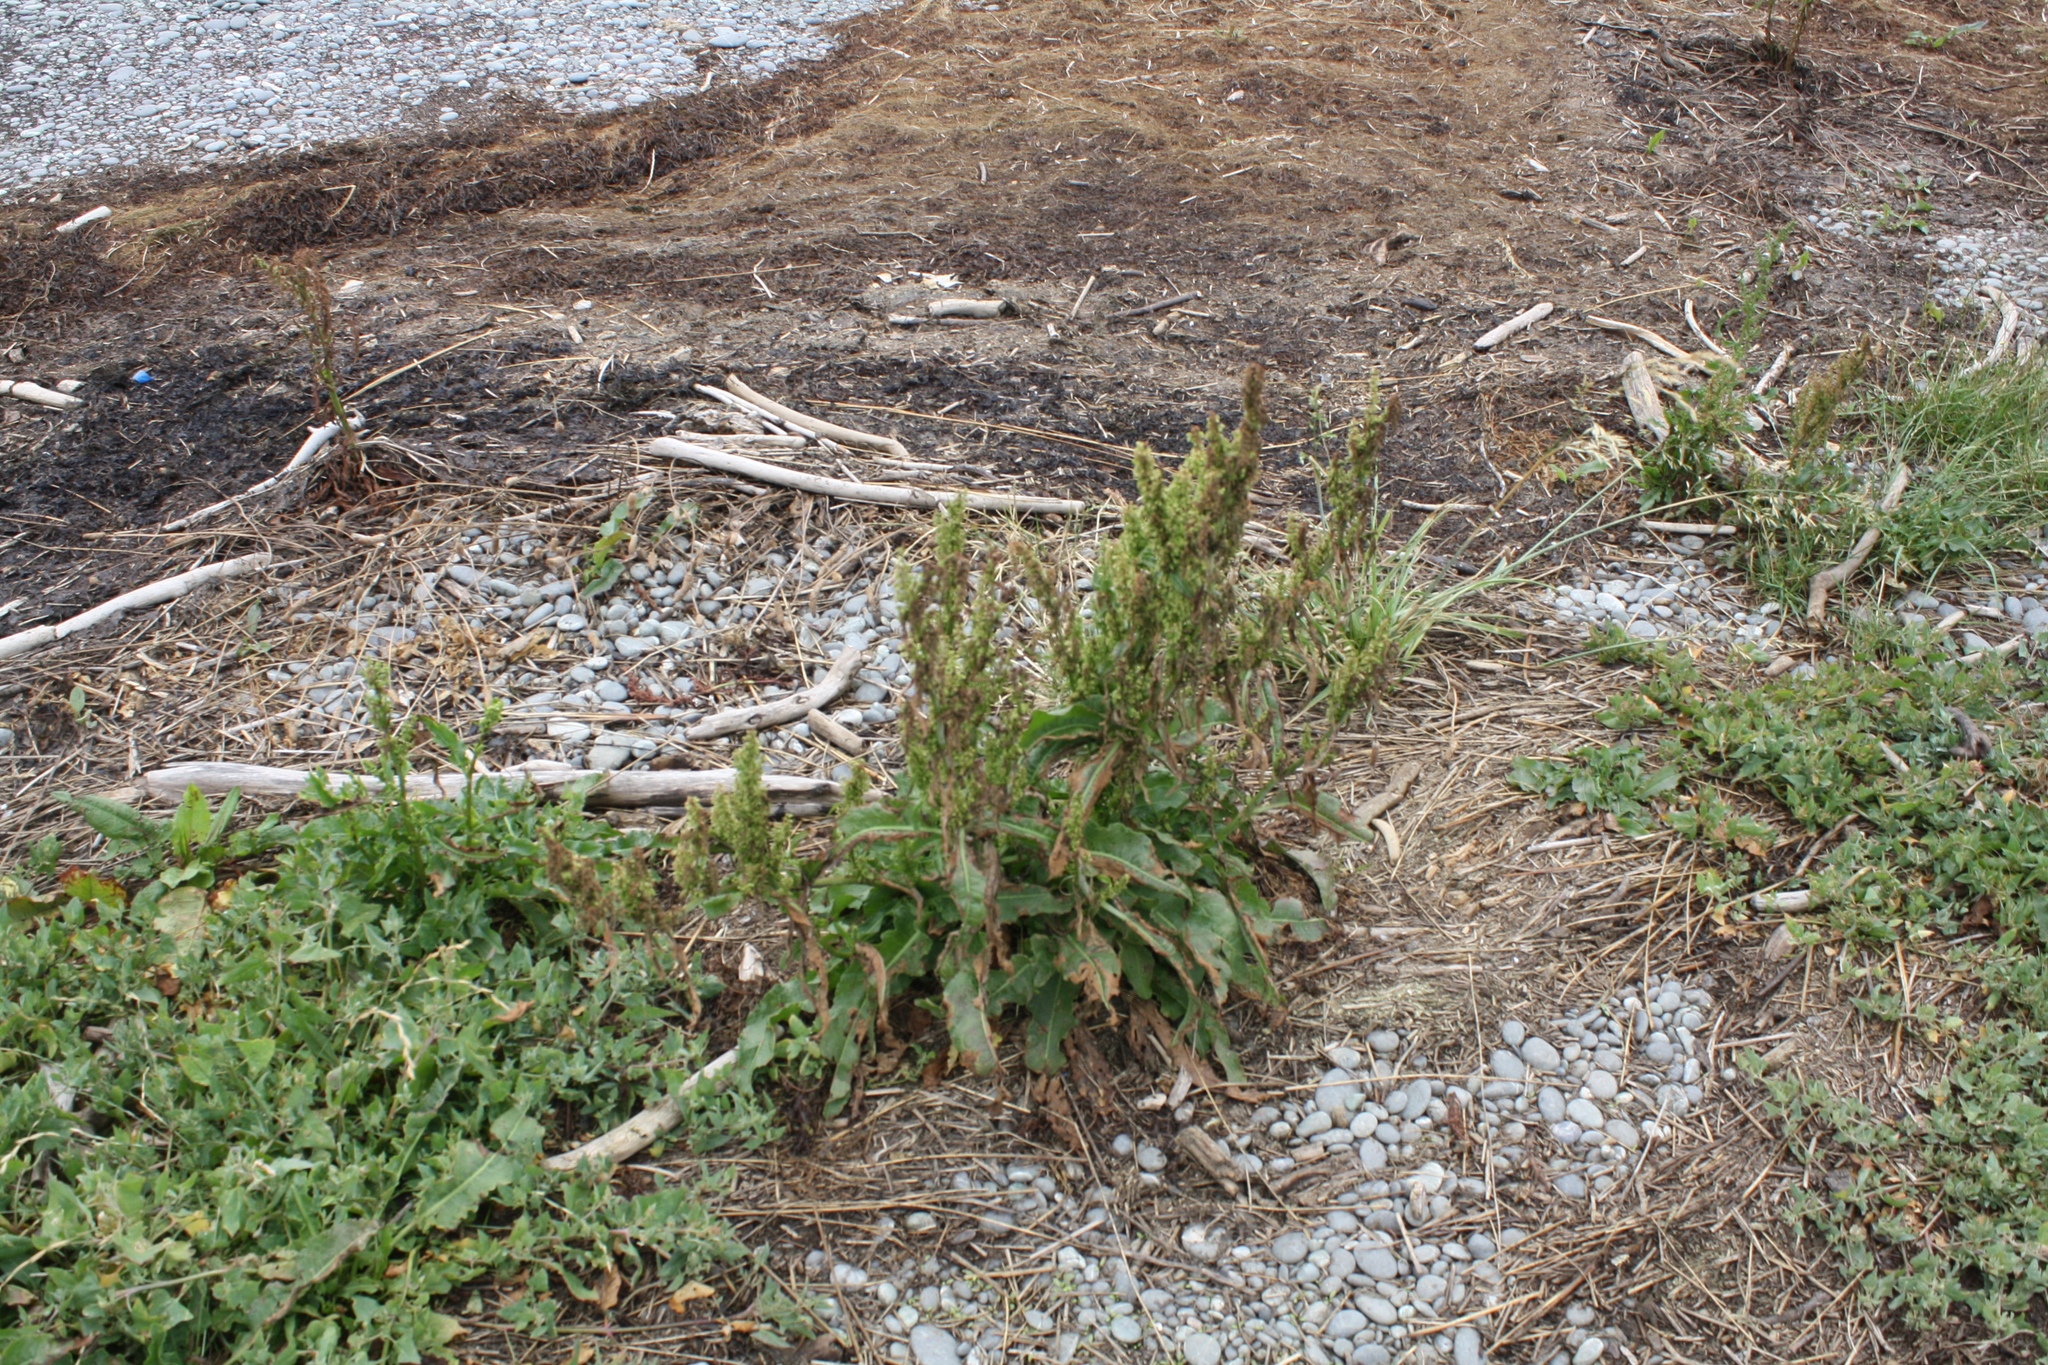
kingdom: Plantae
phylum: Tracheophyta
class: Magnoliopsida
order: Caryophyllales
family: Polygonaceae
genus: Rumex
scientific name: Rumex obtusifolius
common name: Bitter dock
